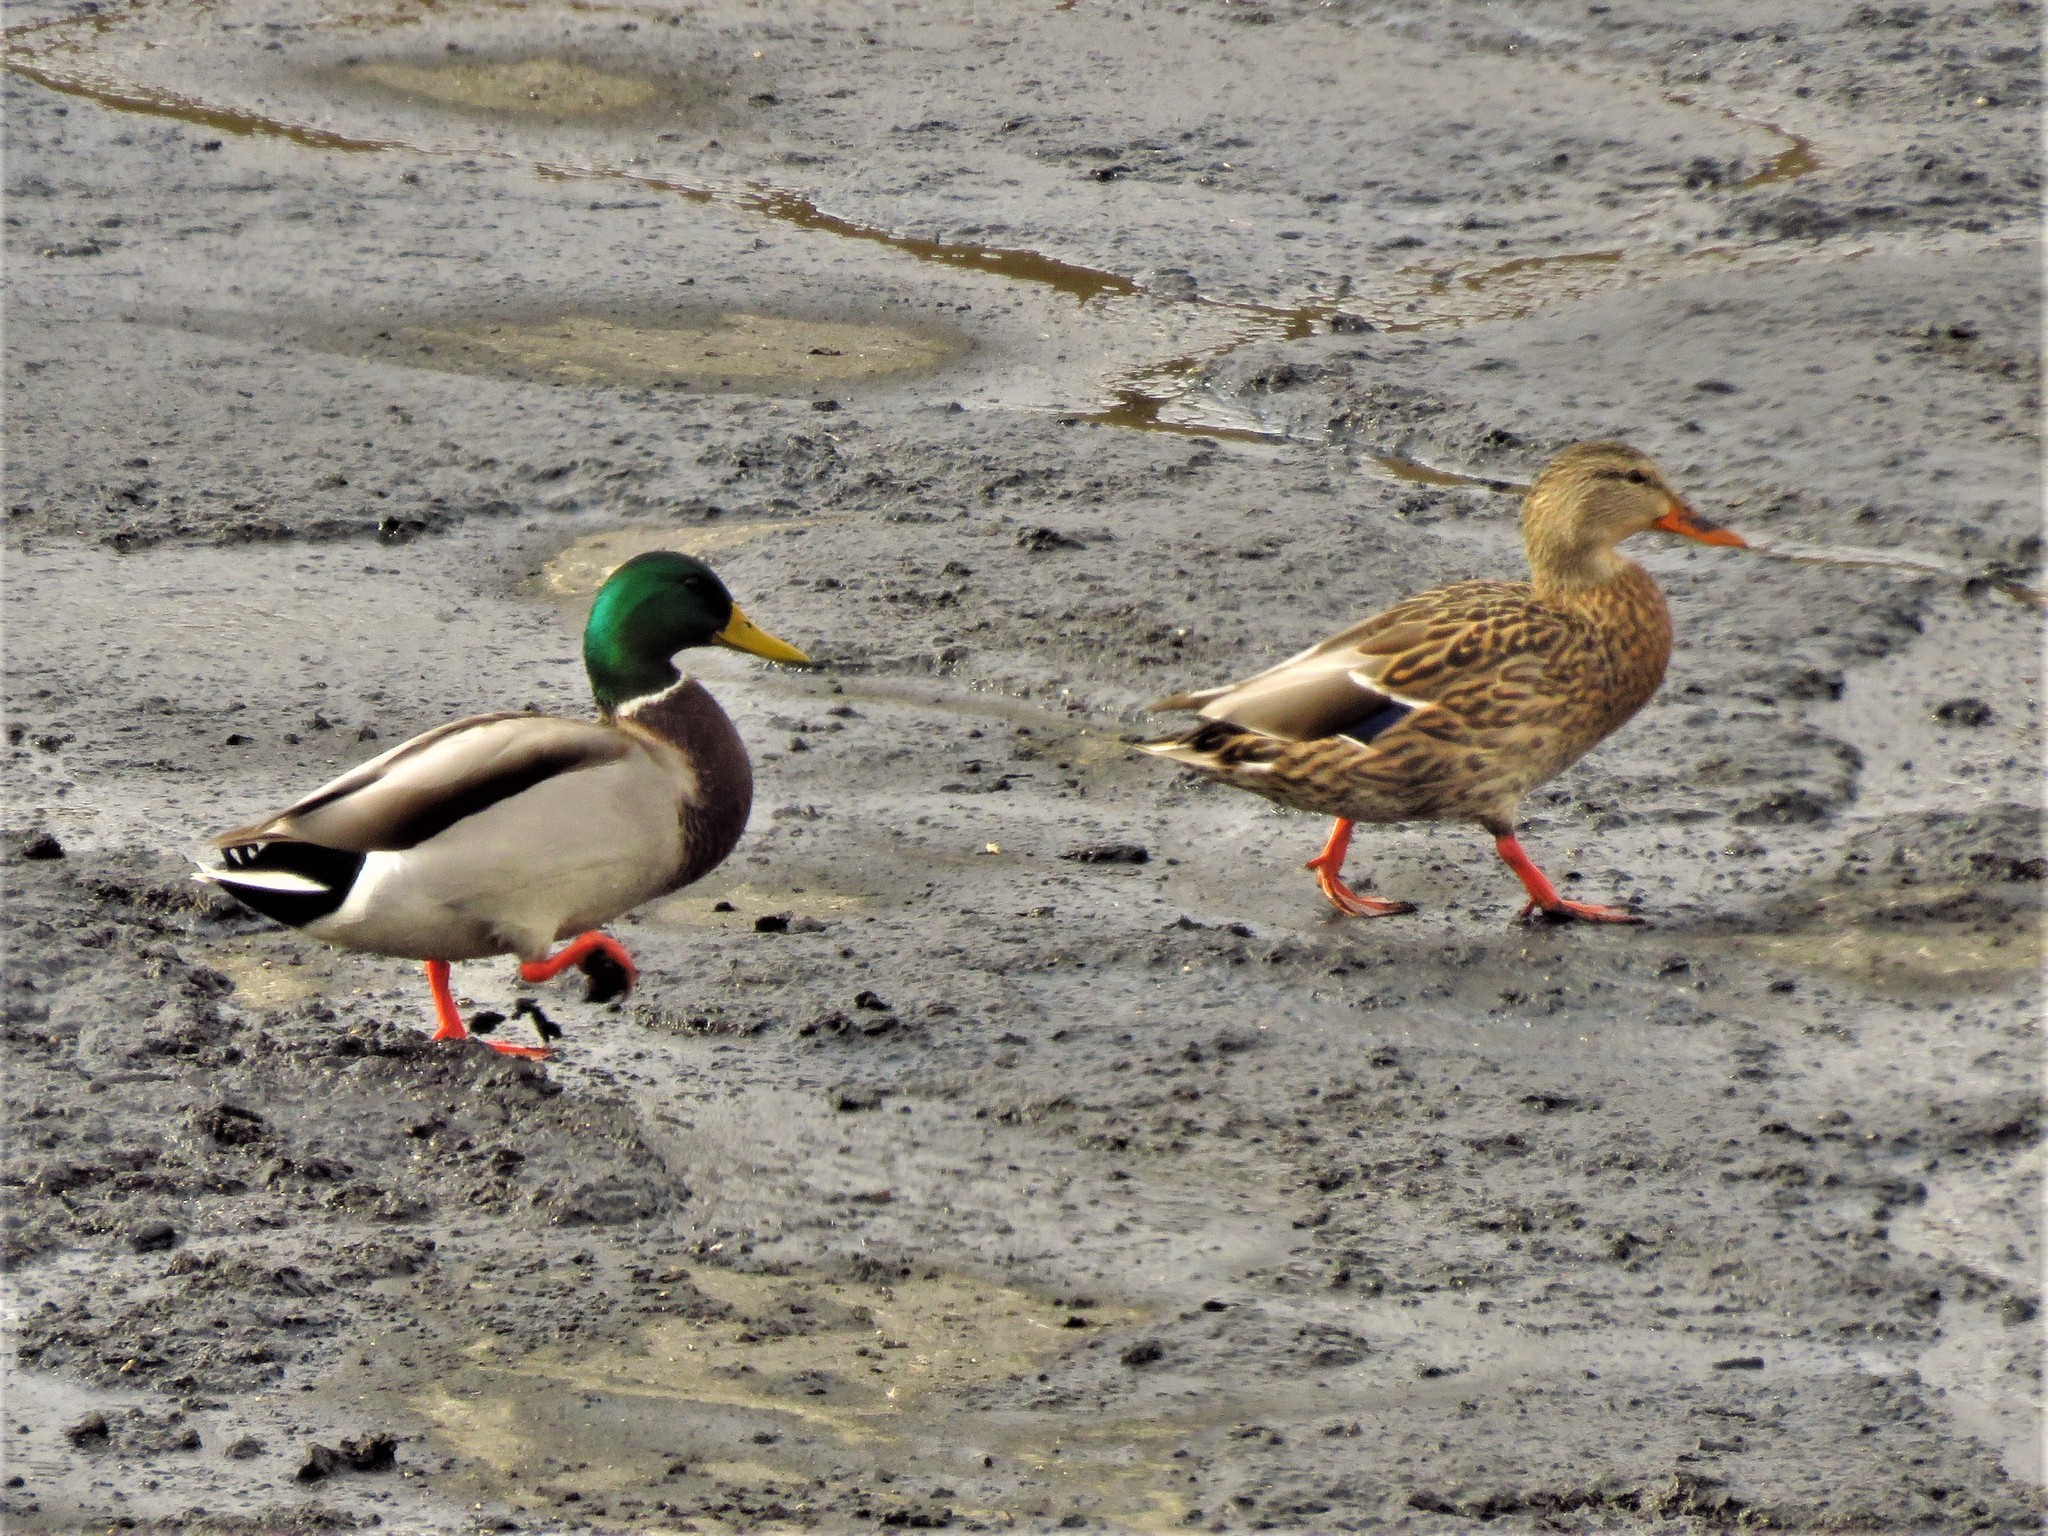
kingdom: Animalia
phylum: Chordata
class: Aves
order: Anseriformes
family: Anatidae
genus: Anas
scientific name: Anas platyrhynchos
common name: Mallard
